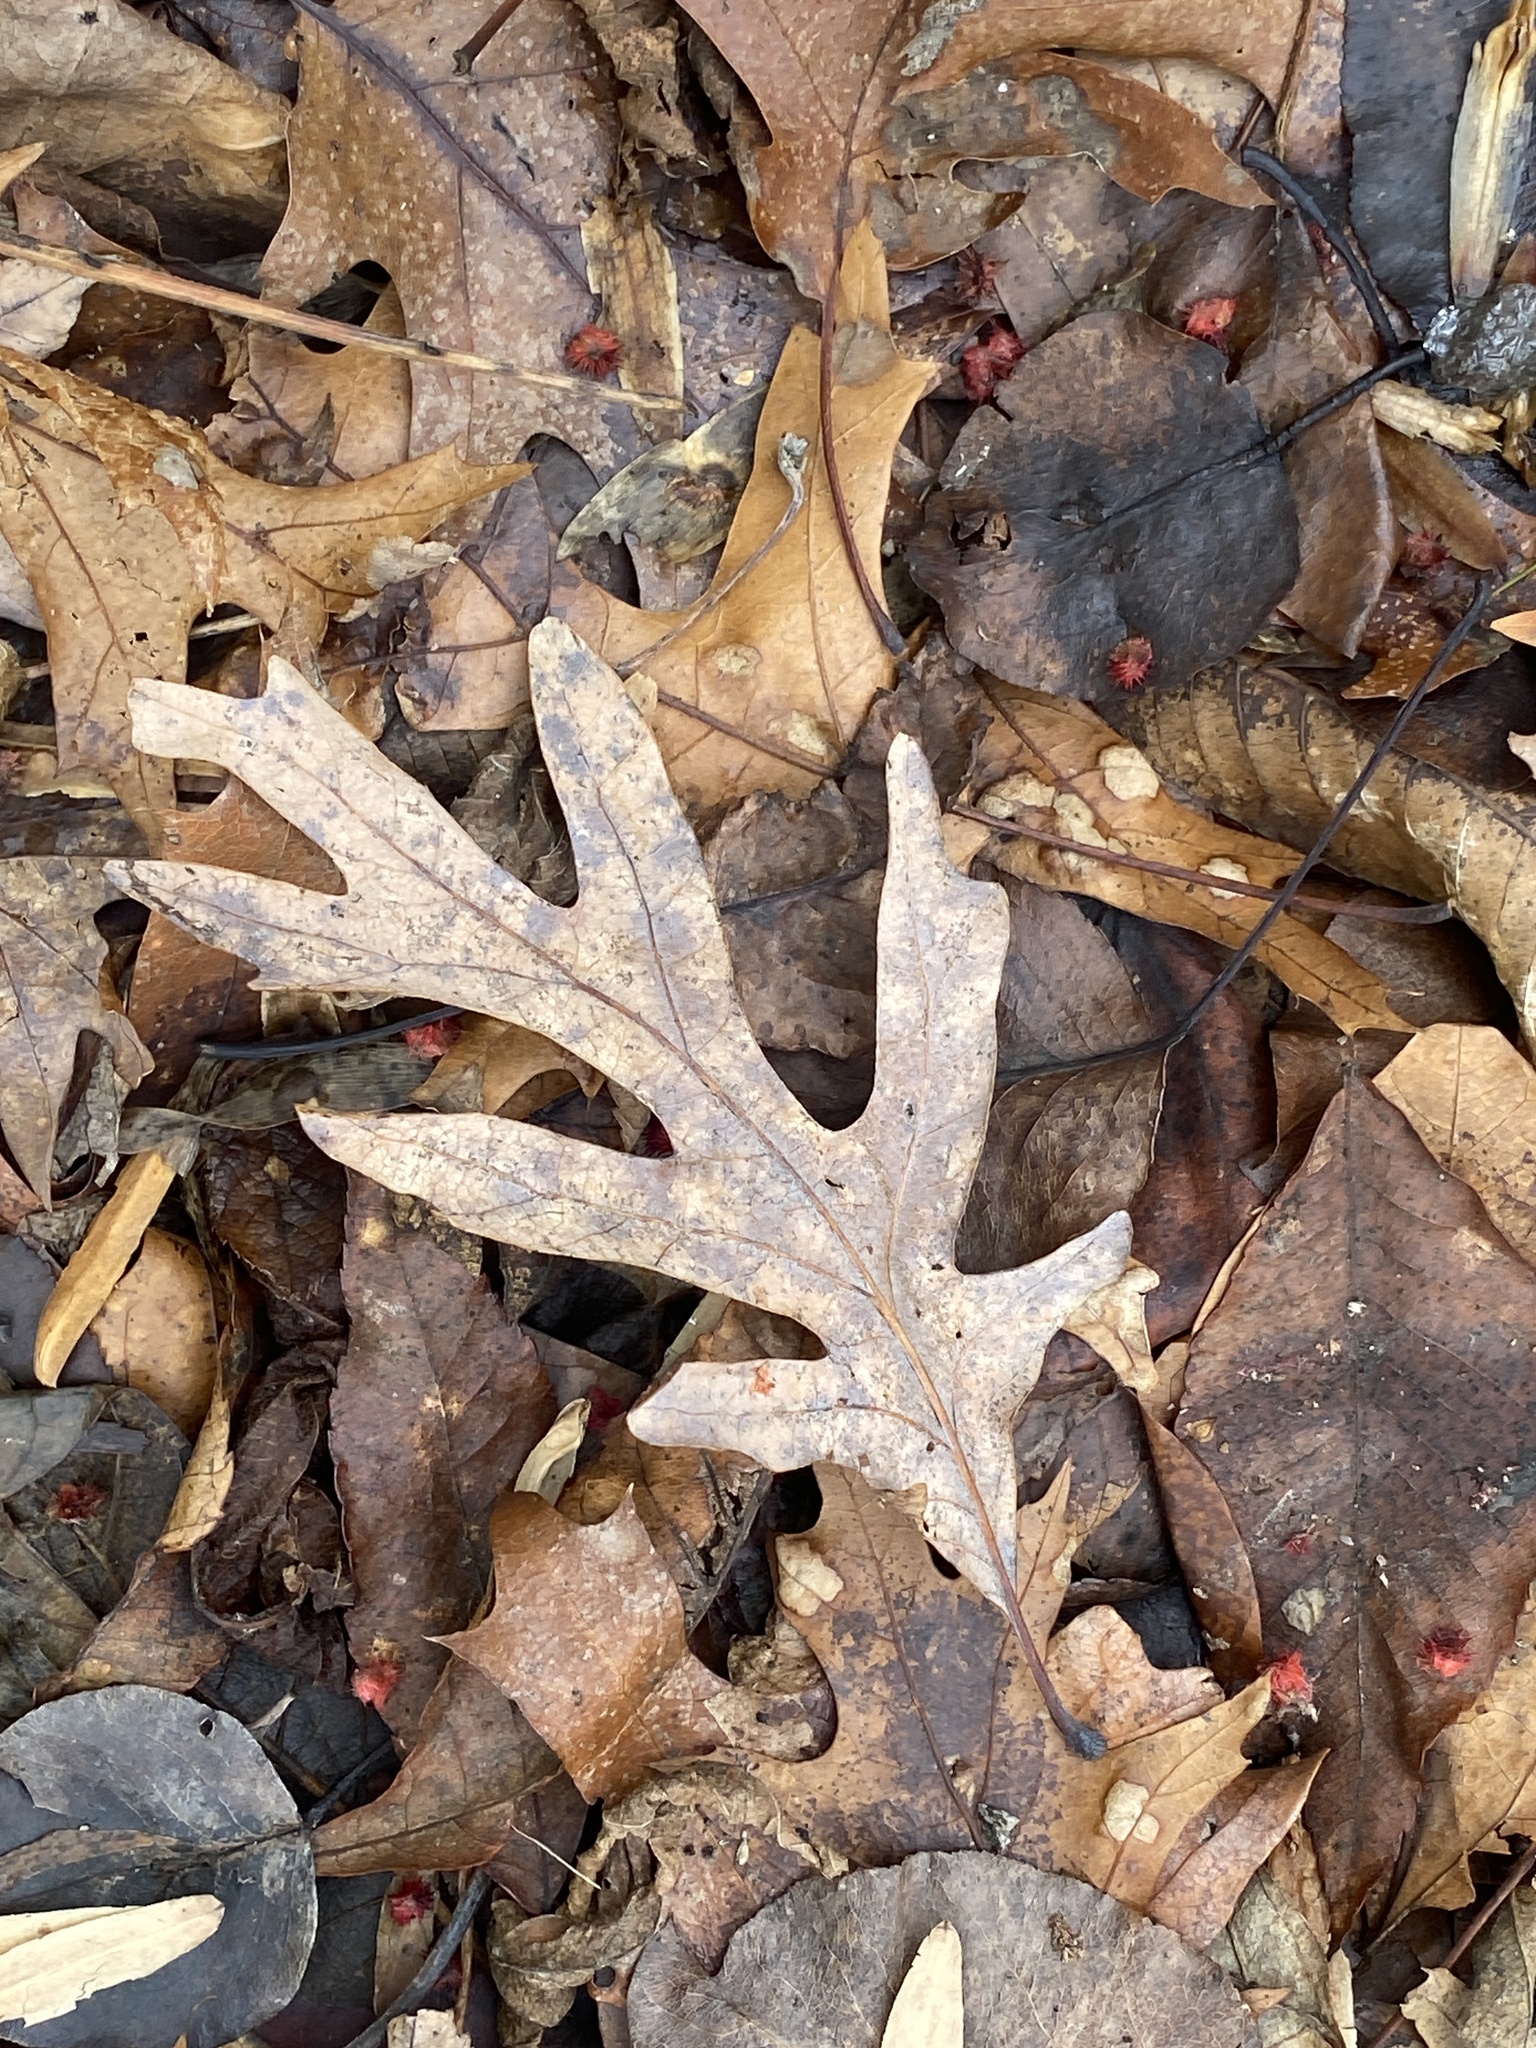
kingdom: Plantae
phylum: Tracheophyta
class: Magnoliopsida
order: Fagales
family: Fagaceae
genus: Quercus
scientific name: Quercus alba
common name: White oak
